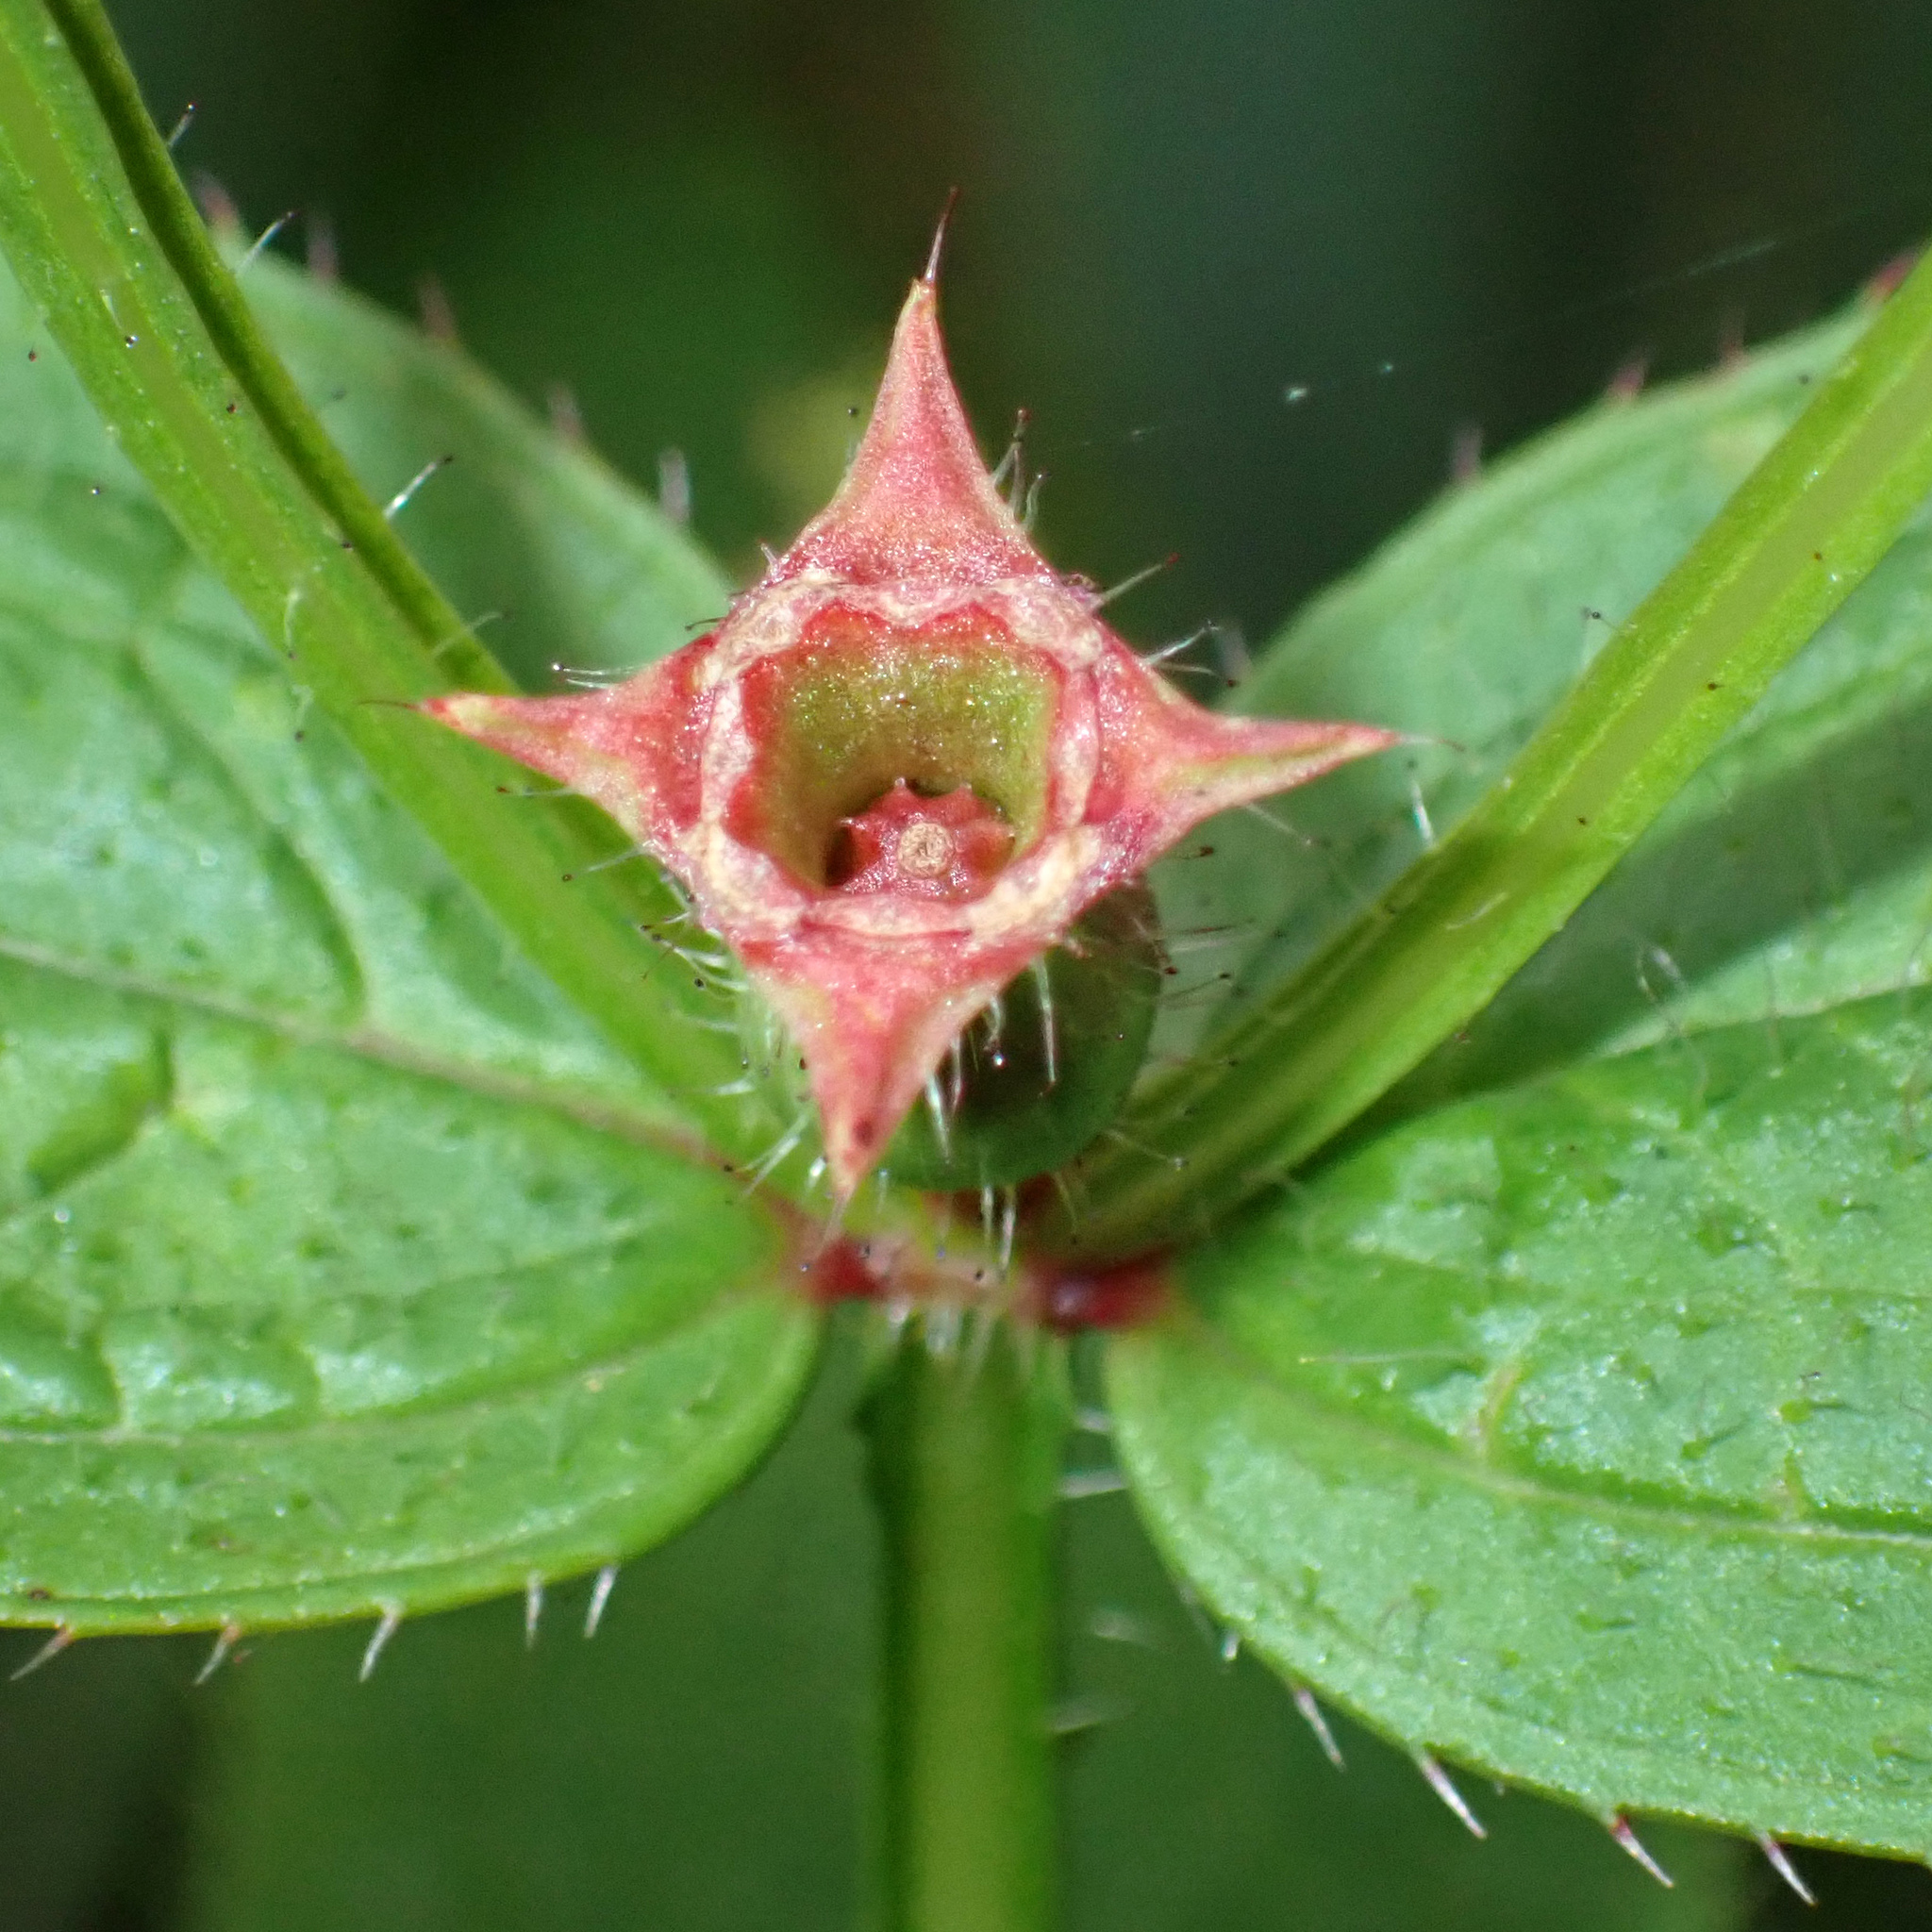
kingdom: Plantae
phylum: Tracheophyta
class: Magnoliopsida
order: Myrtales
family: Melastomataceae
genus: Rhexia
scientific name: Rhexia virginica
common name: Common meadow beauty
